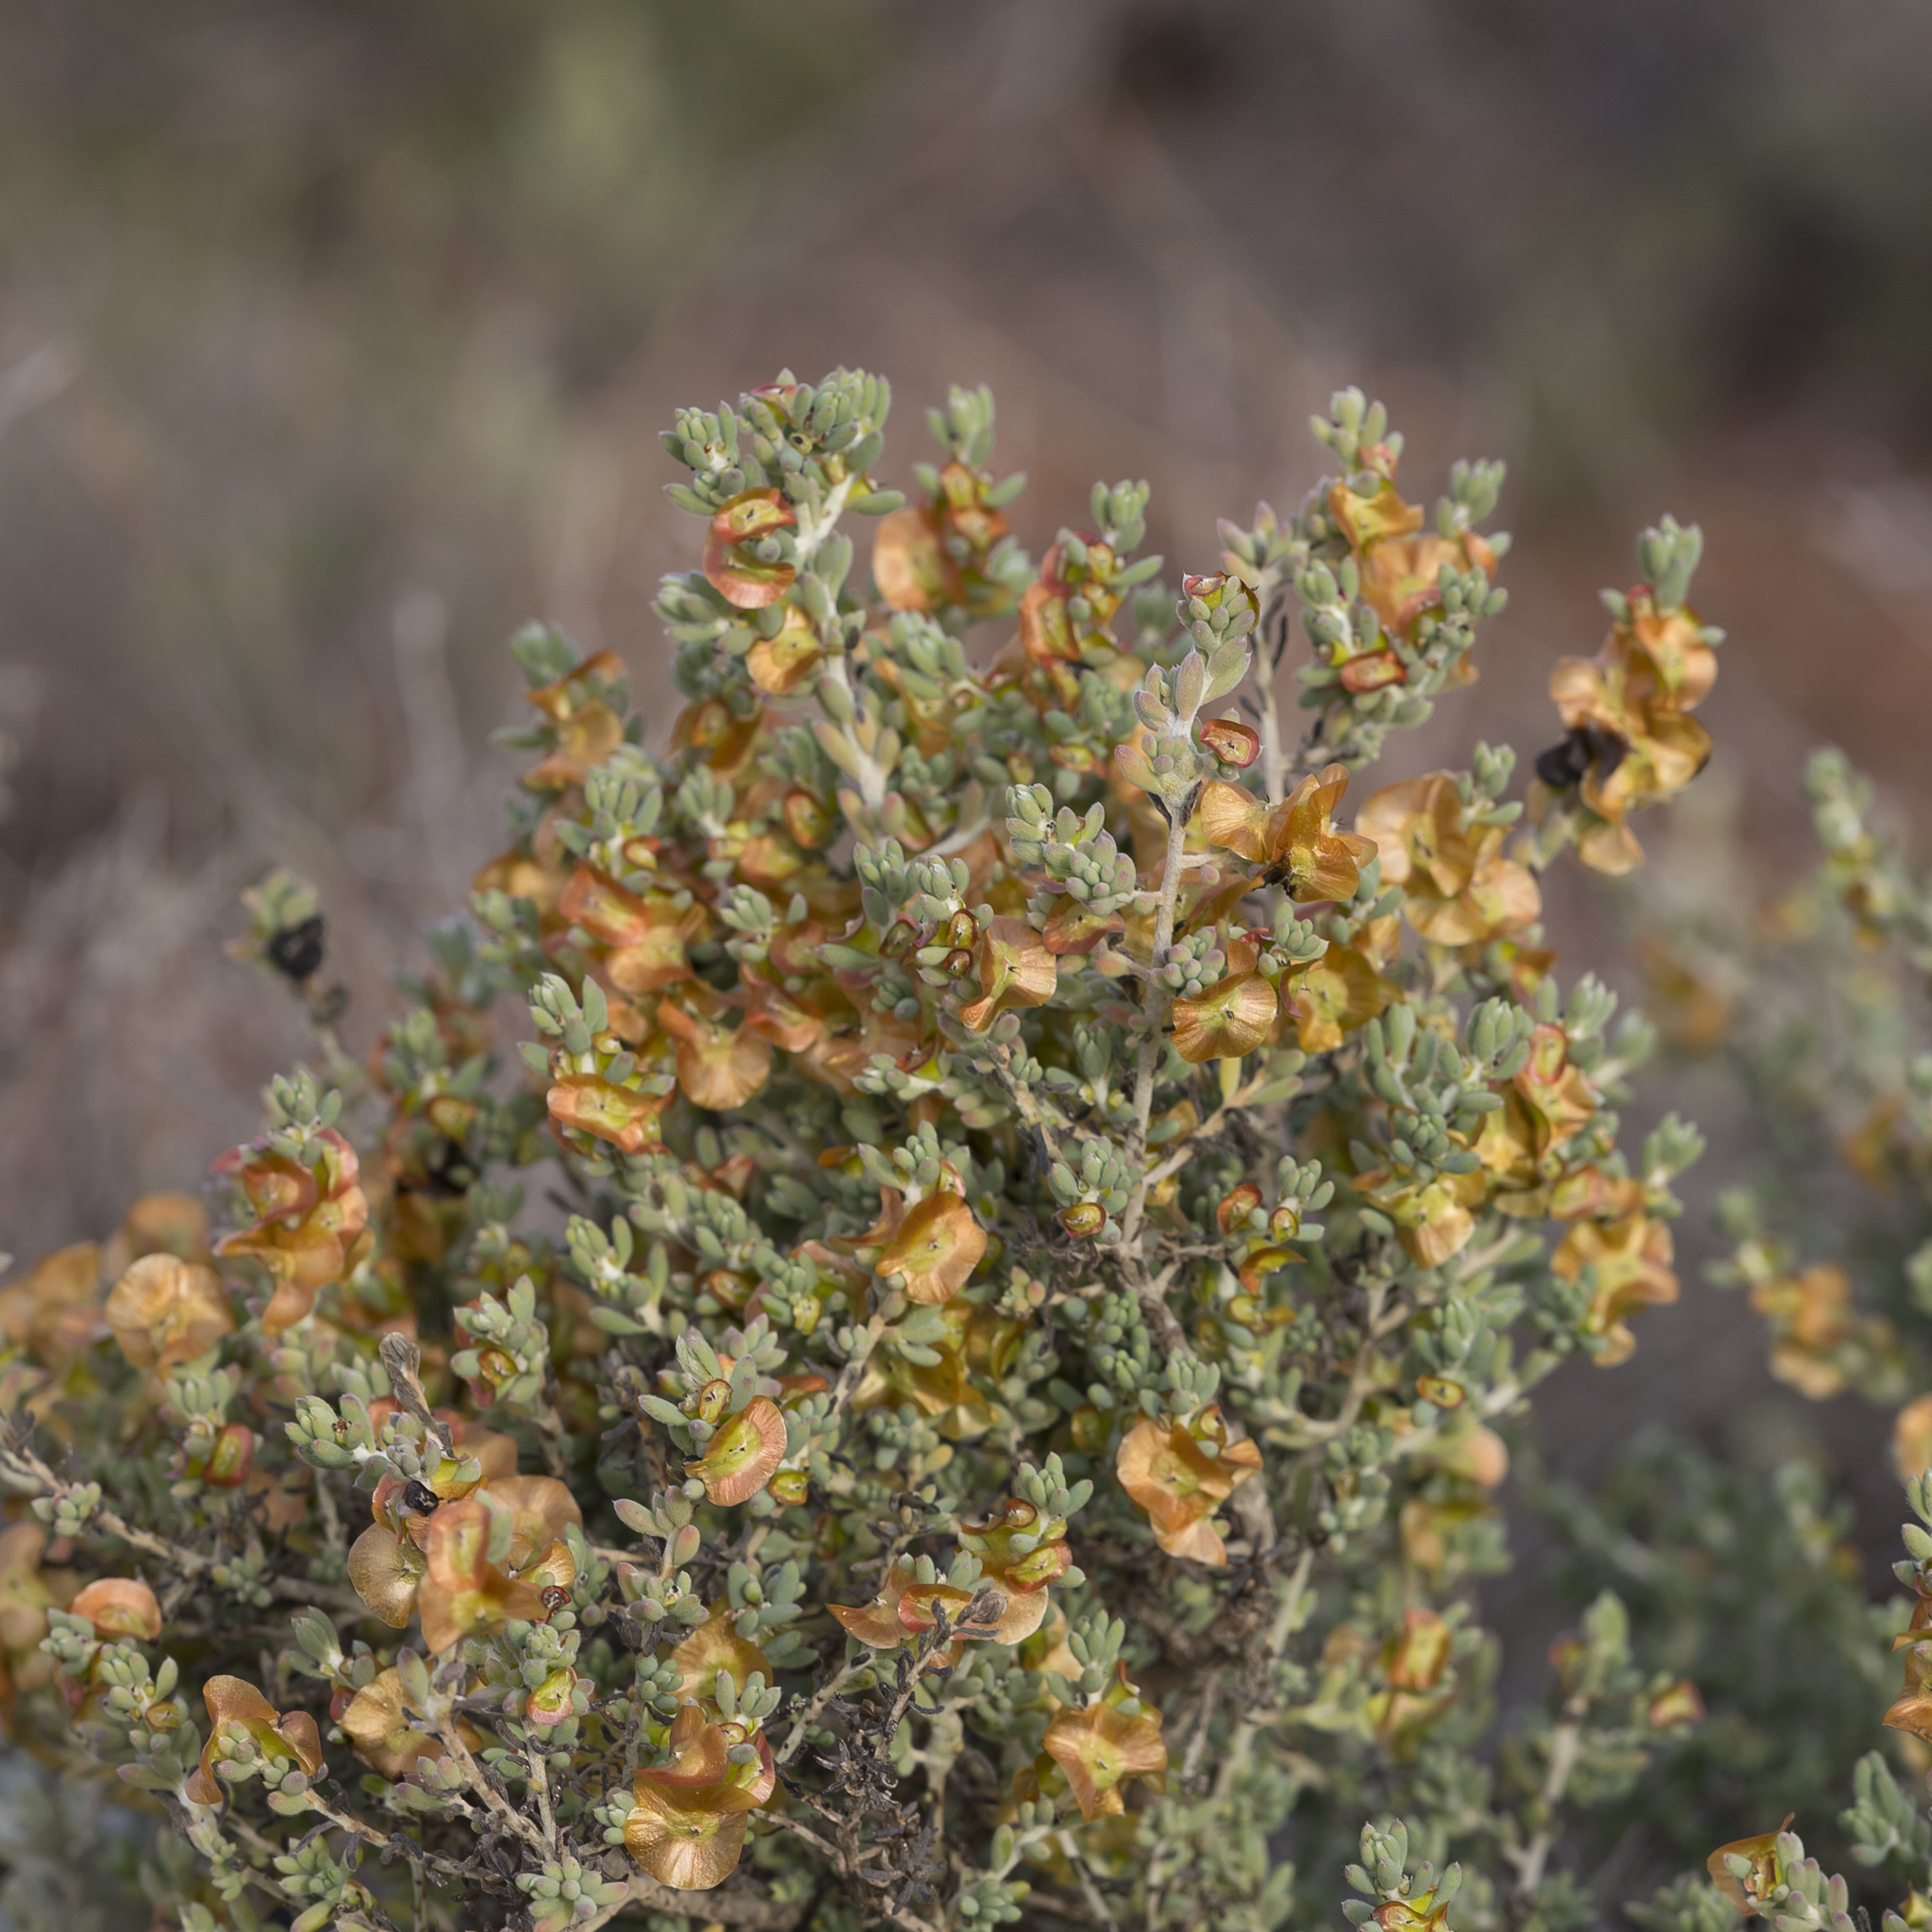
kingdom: Plantae
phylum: Tracheophyta
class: Magnoliopsida
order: Caryophyllales
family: Amaranthaceae
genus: Maireana
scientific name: Maireana turbinata
